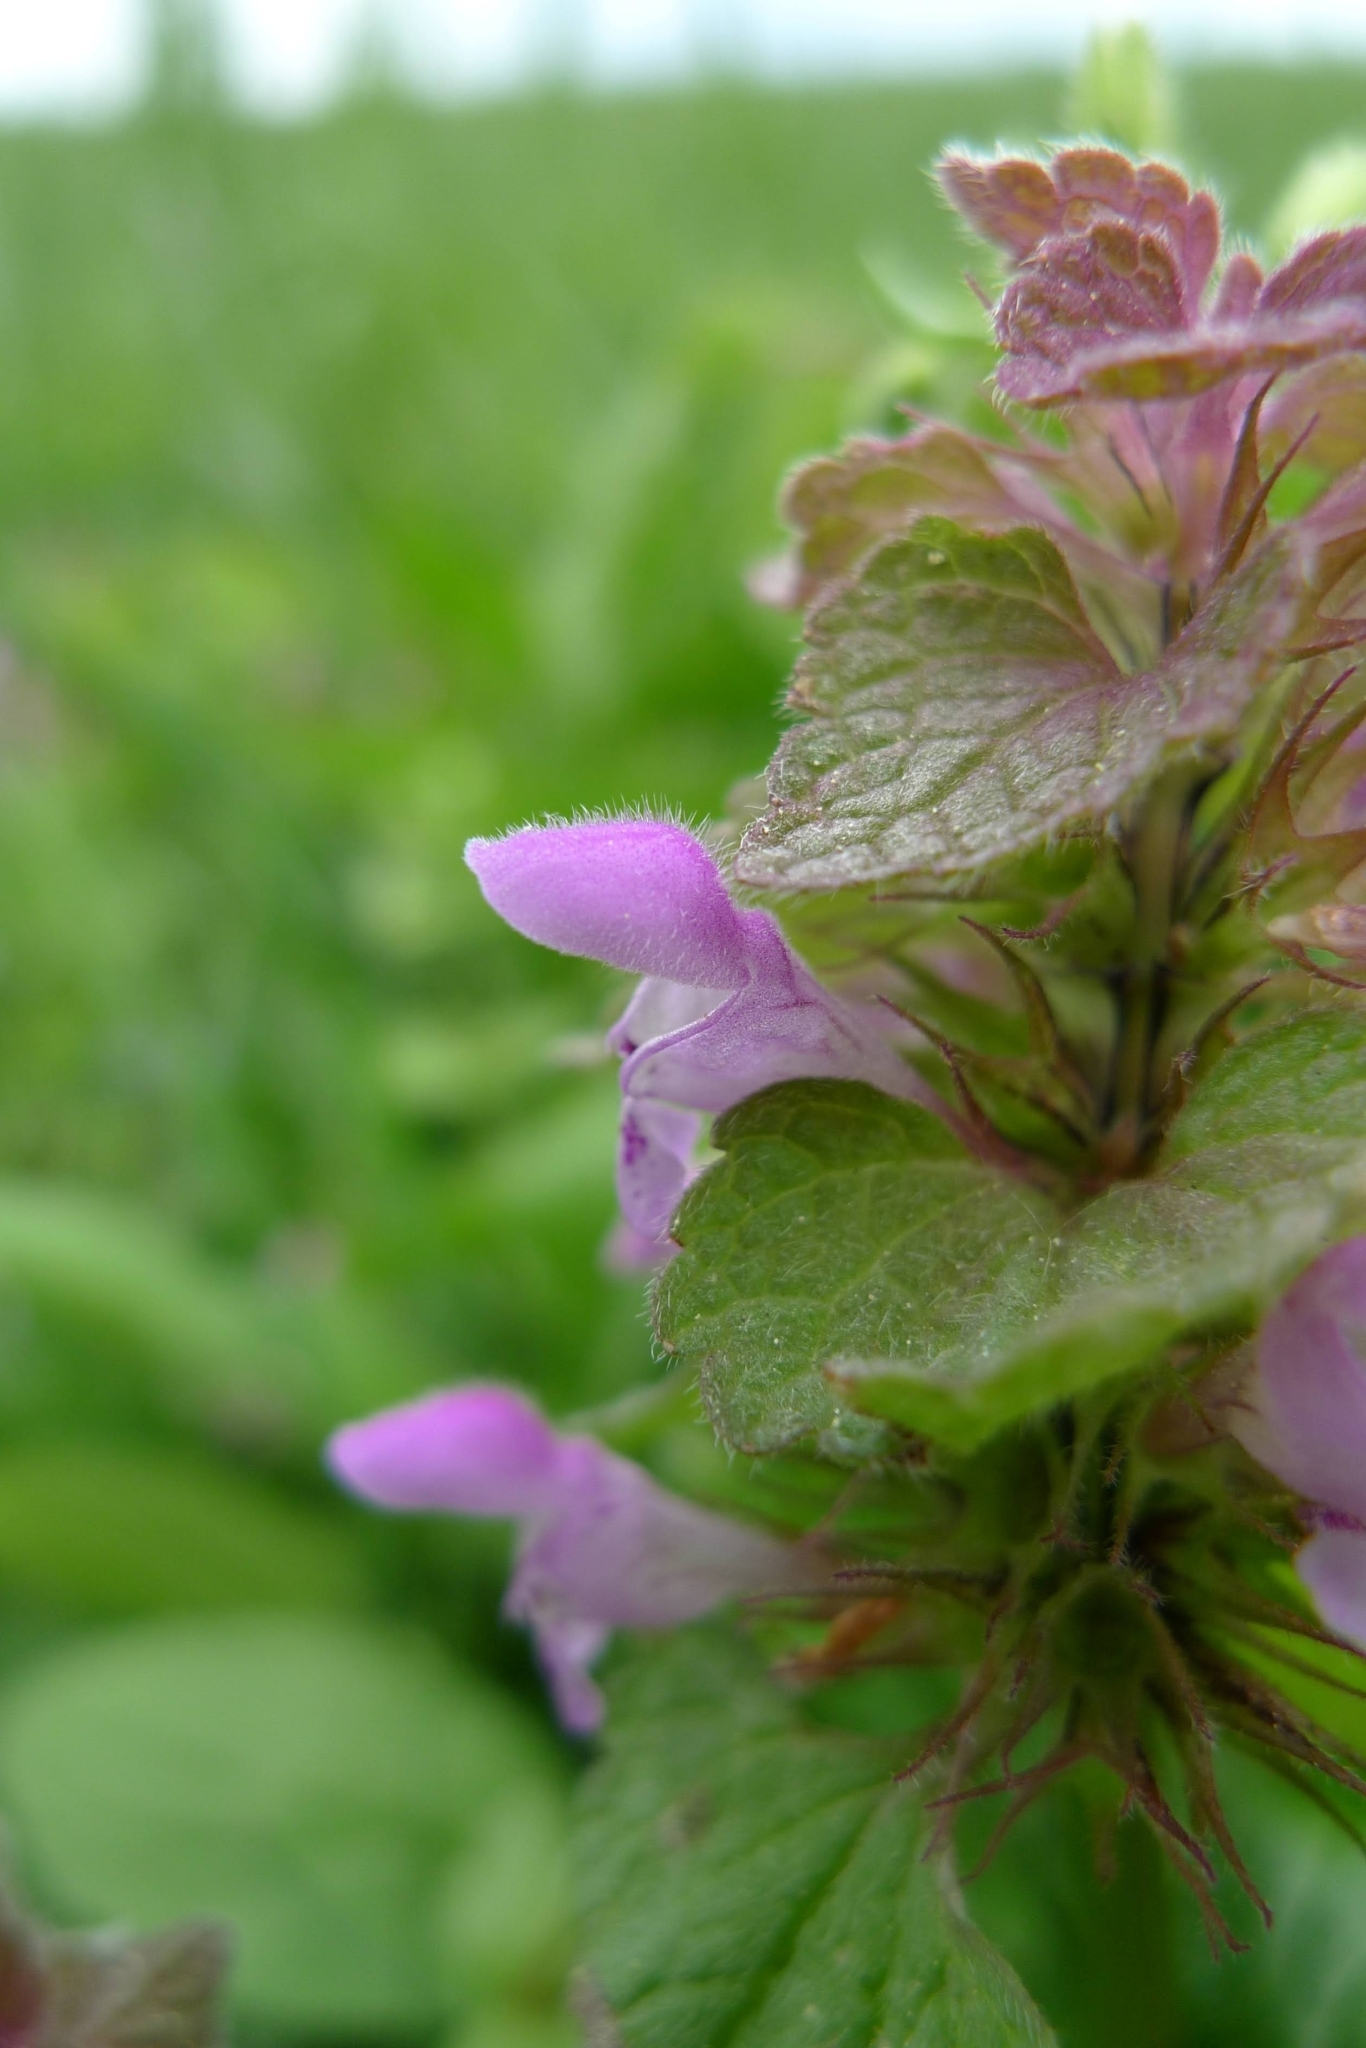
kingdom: Plantae
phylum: Tracheophyta
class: Magnoliopsida
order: Lamiales
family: Lamiaceae
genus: Lamium
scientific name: Lamium purpureum
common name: Red dead-nettle
